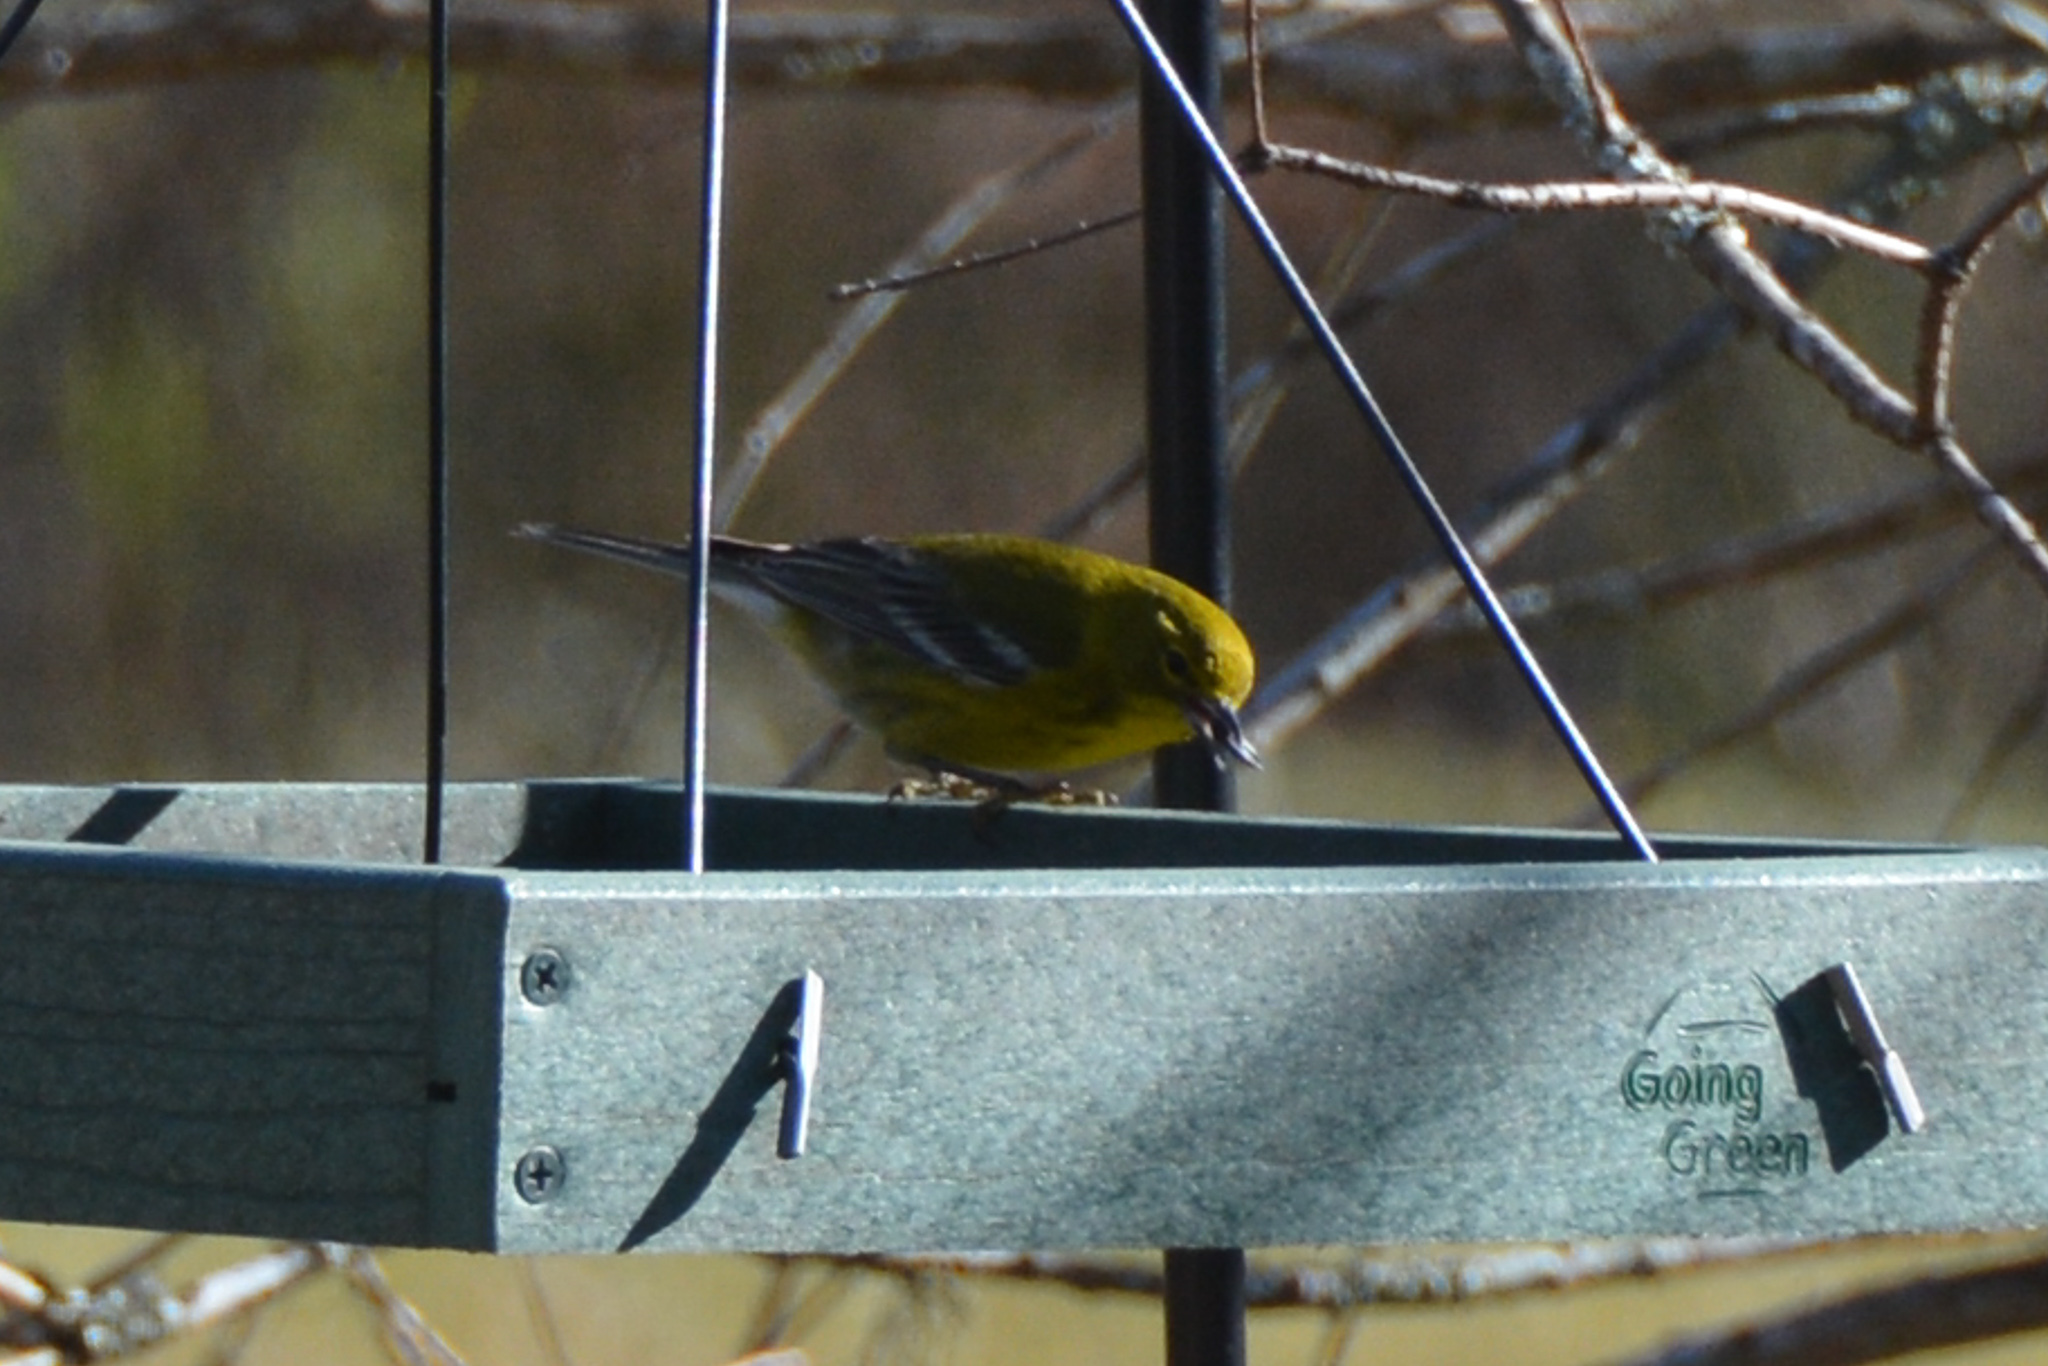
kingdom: Animalia
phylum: Chordata
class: Aves
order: Passeriformes
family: Parulidae
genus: Setophaga
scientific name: Setophaga pinus
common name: Pine warbler
